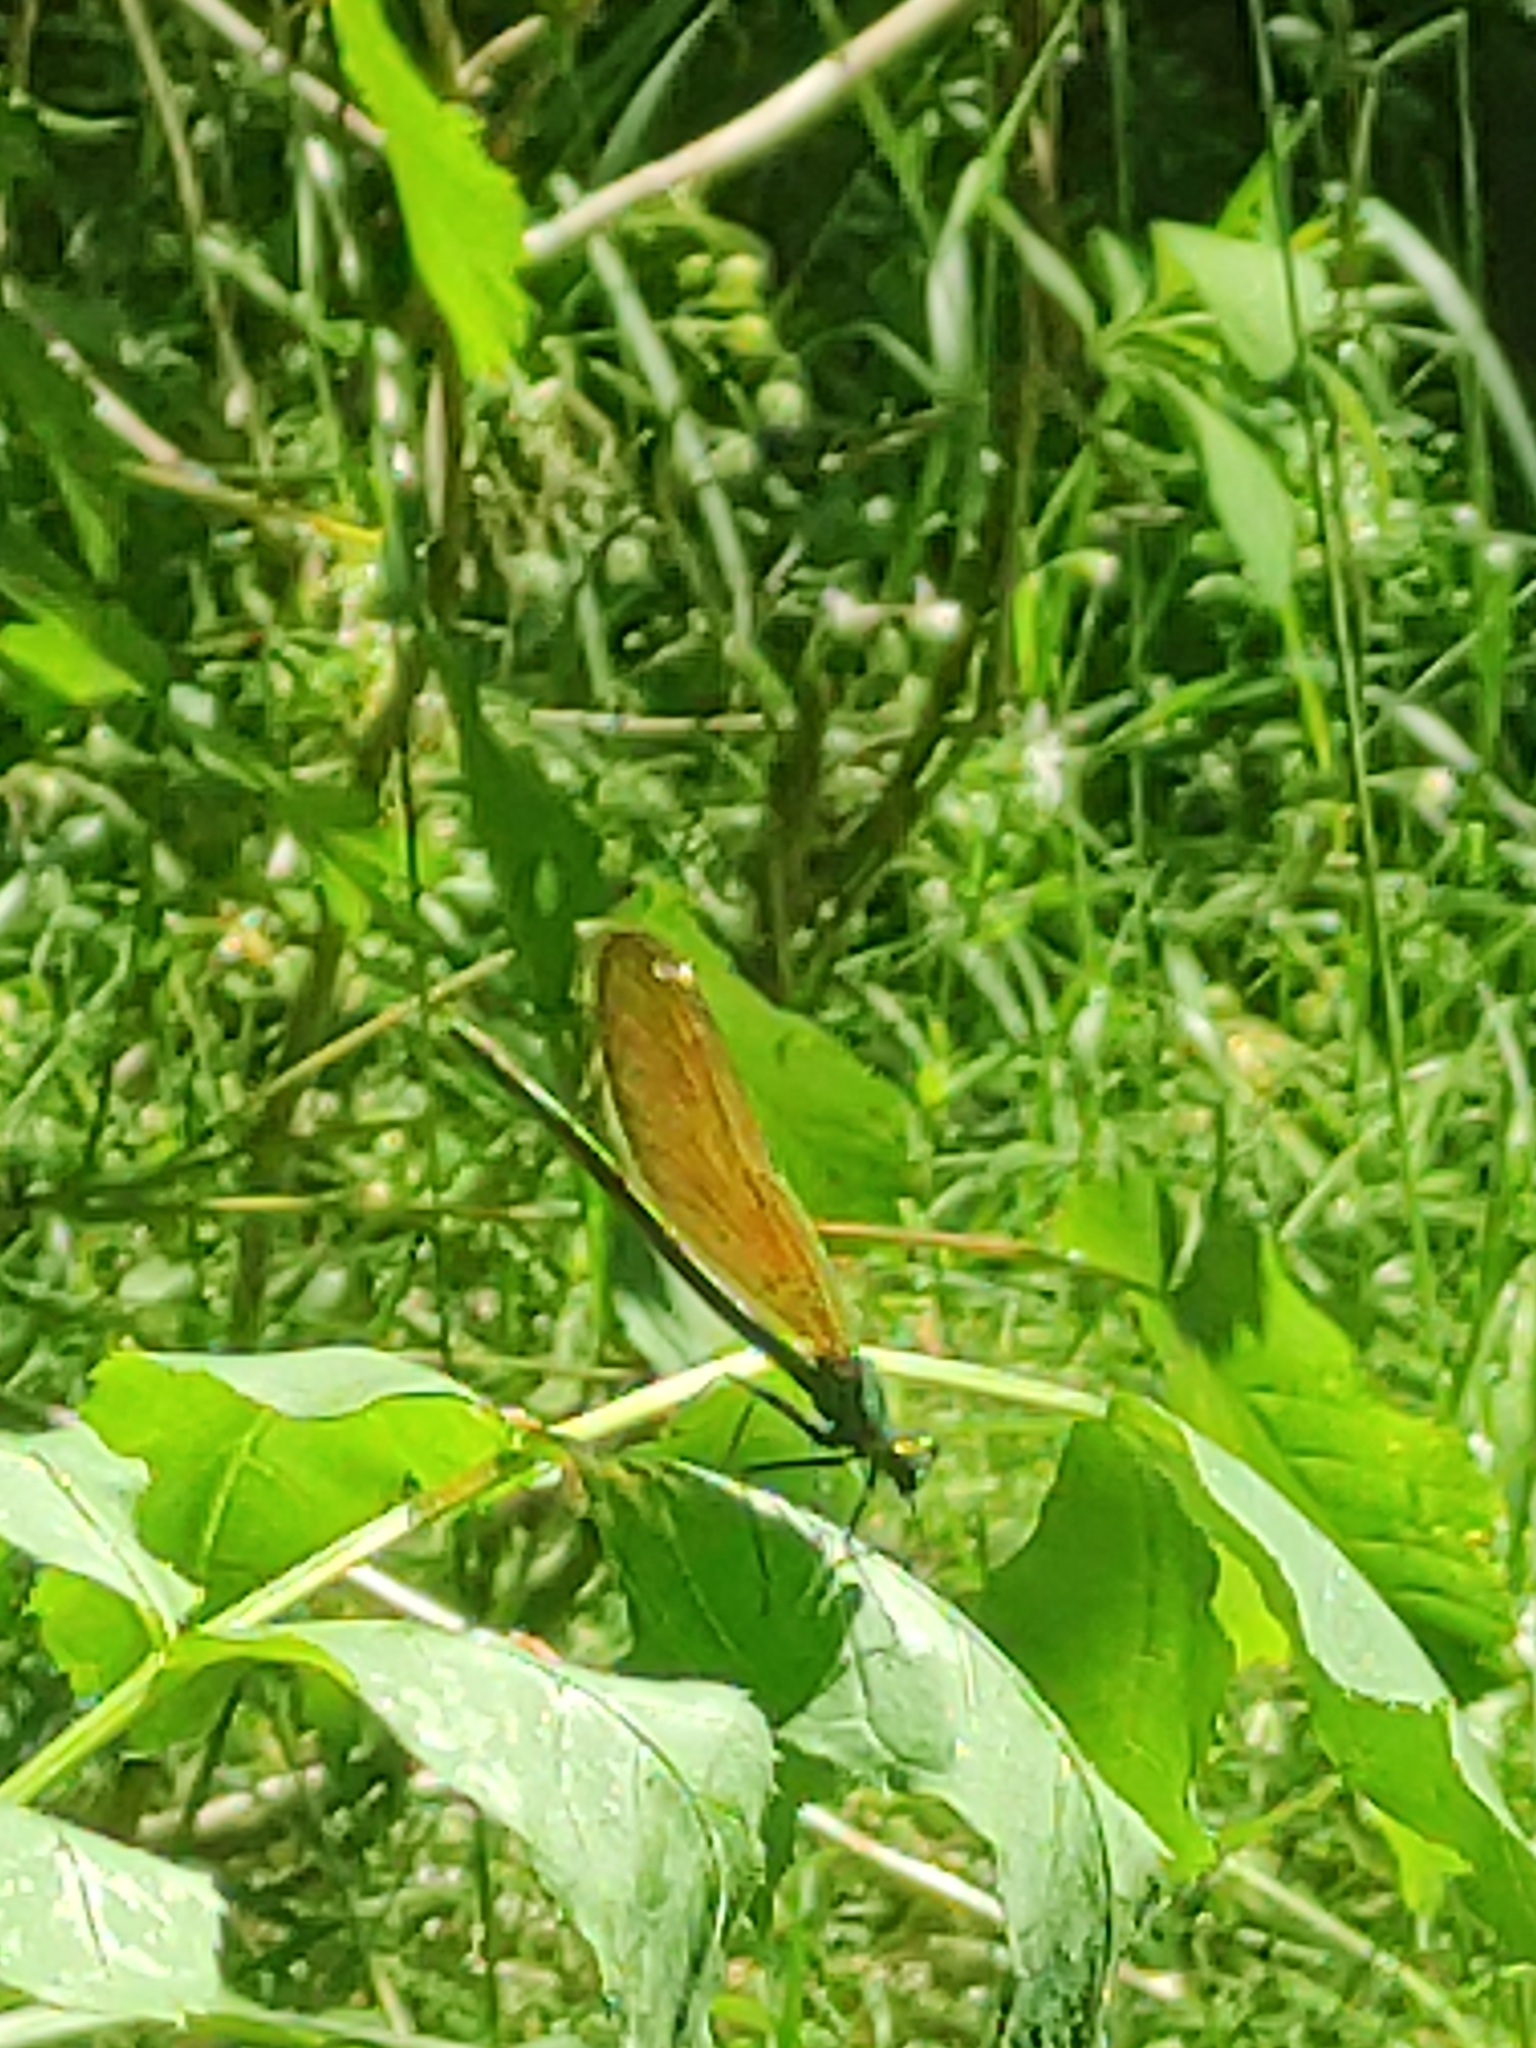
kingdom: Animalia
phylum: Arthropoda
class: Insecta
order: Odonata
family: Calopterygidae
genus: Calopteryx
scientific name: Calopteryx virgo
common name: Beautiful demoiselle
